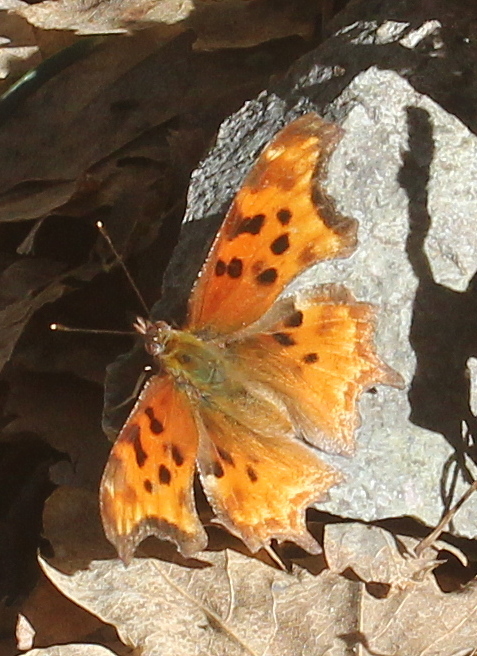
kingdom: Animalia
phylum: Arthropoda
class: Insecta
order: Lepidoptera
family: Nymphalidae
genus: Polygonia
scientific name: Polygonia satyrus
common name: Satyr angle wing
